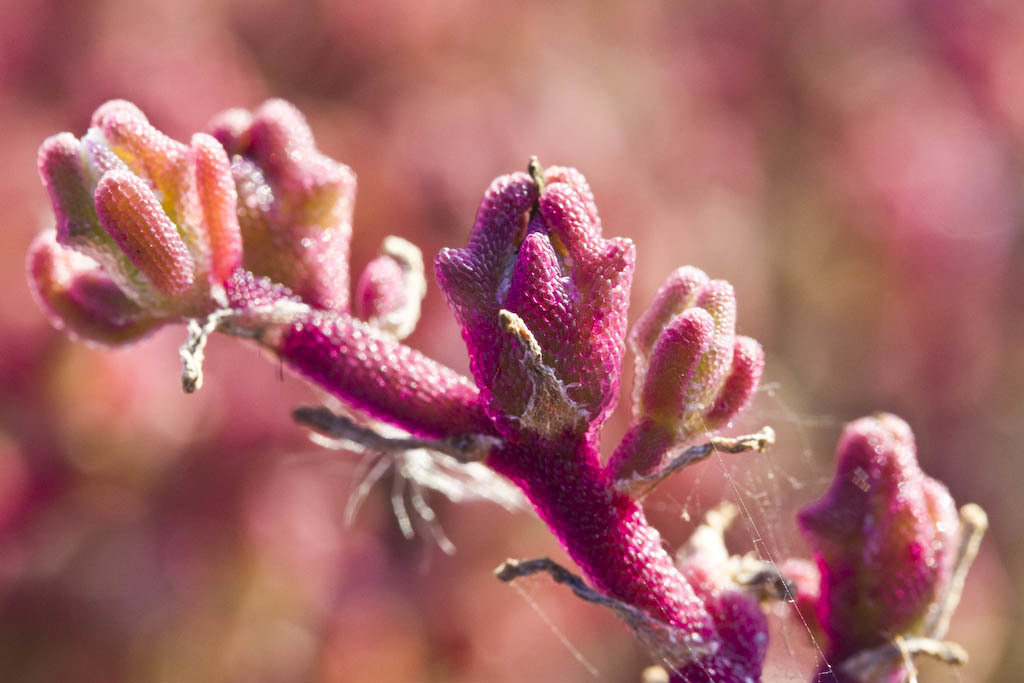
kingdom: Plantae
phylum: Tracheophyta
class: Magnoliopsida
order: Caryophyllales
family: Aizoaceae
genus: Mesembryanthemum
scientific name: Mesembryanthemum nodiflorum
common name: Slenderleaf iceplant
